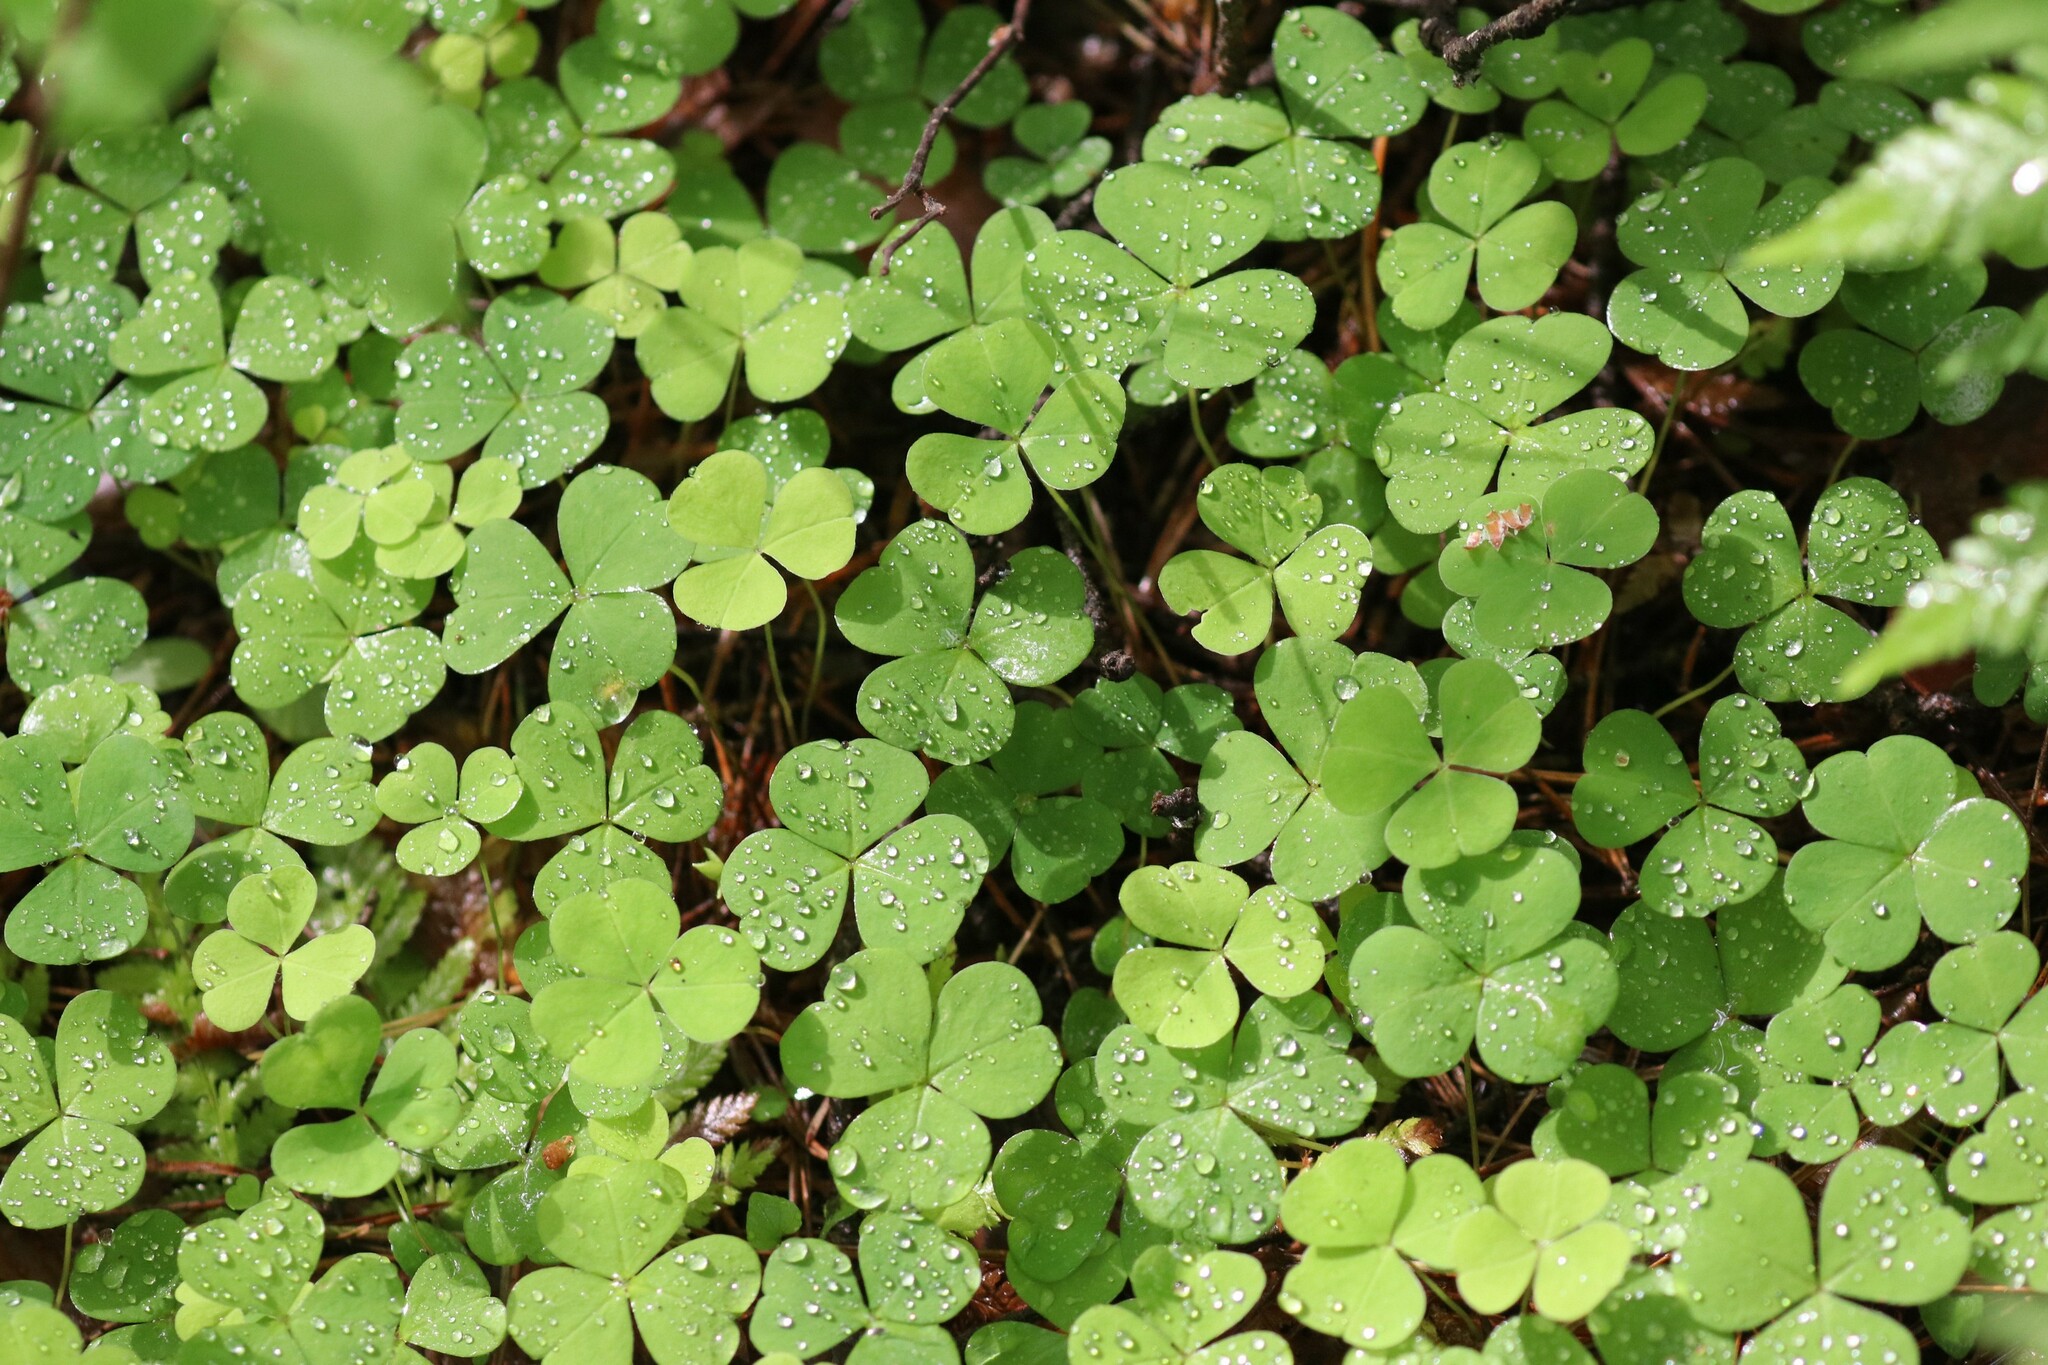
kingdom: Plantae
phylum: Tracheophyta
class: Magnoliopsida
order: Oxalidales
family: Oxalidaceae
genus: Oxalis
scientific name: Oxalis acetosella
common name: Wood-sorrel
